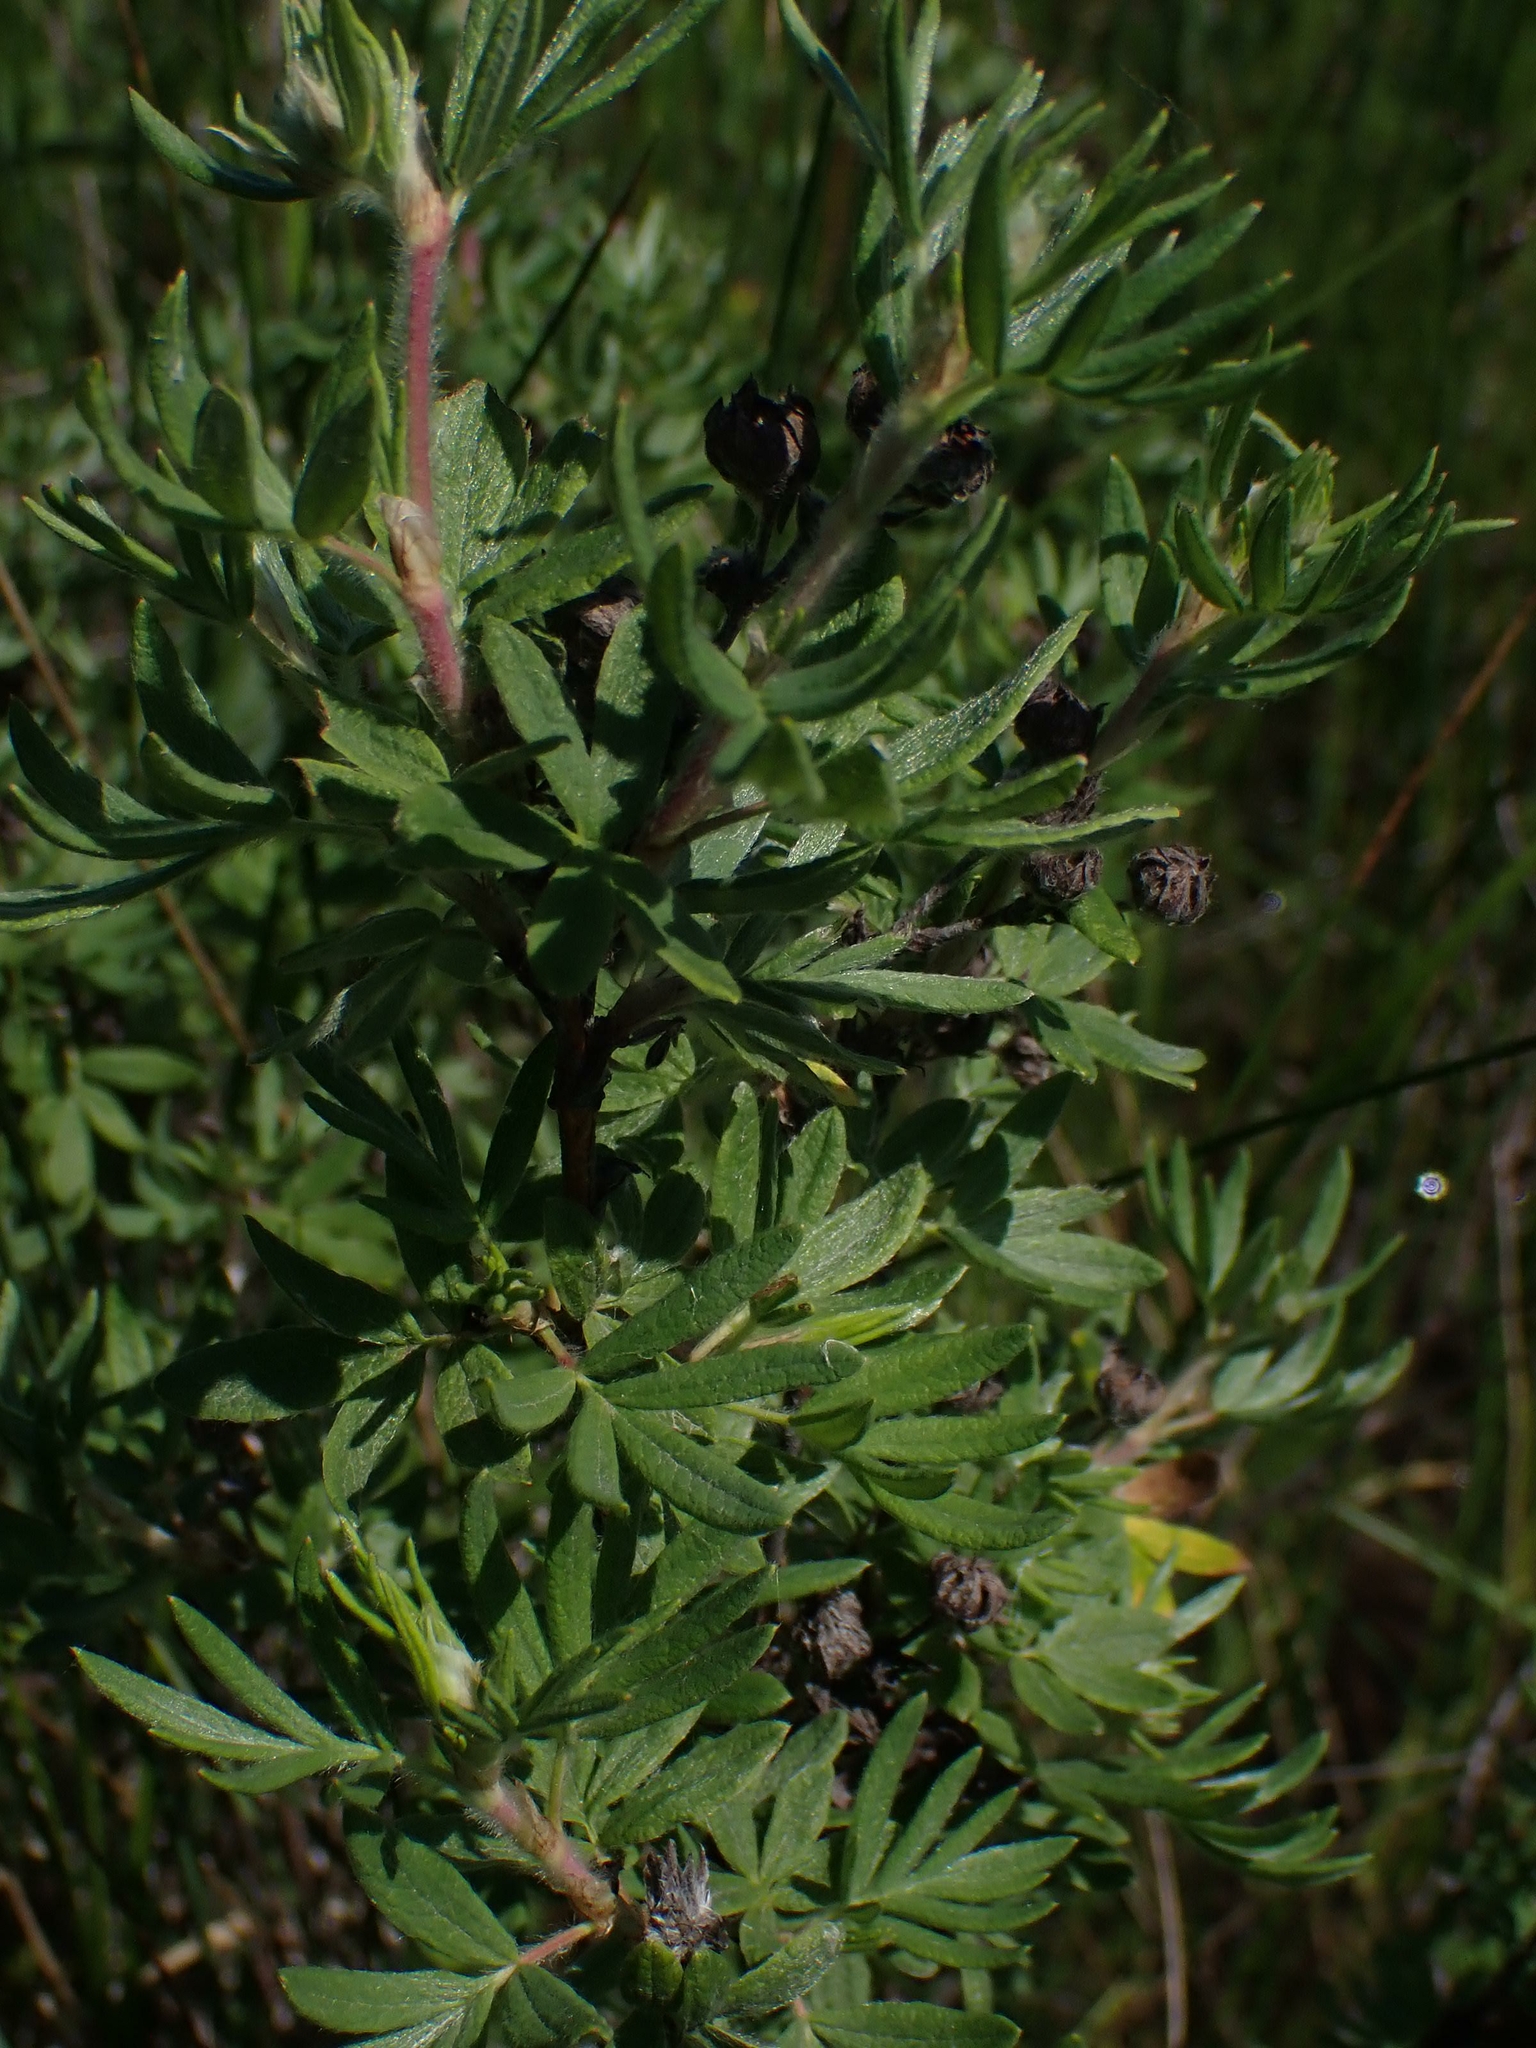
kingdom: Plantae
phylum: Tracheophyta
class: Magnoliopsida
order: Rosales
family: Rosaceae
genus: Dasiphora
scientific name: Dasiphora fruticosa
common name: Shrubby cinquefoil
